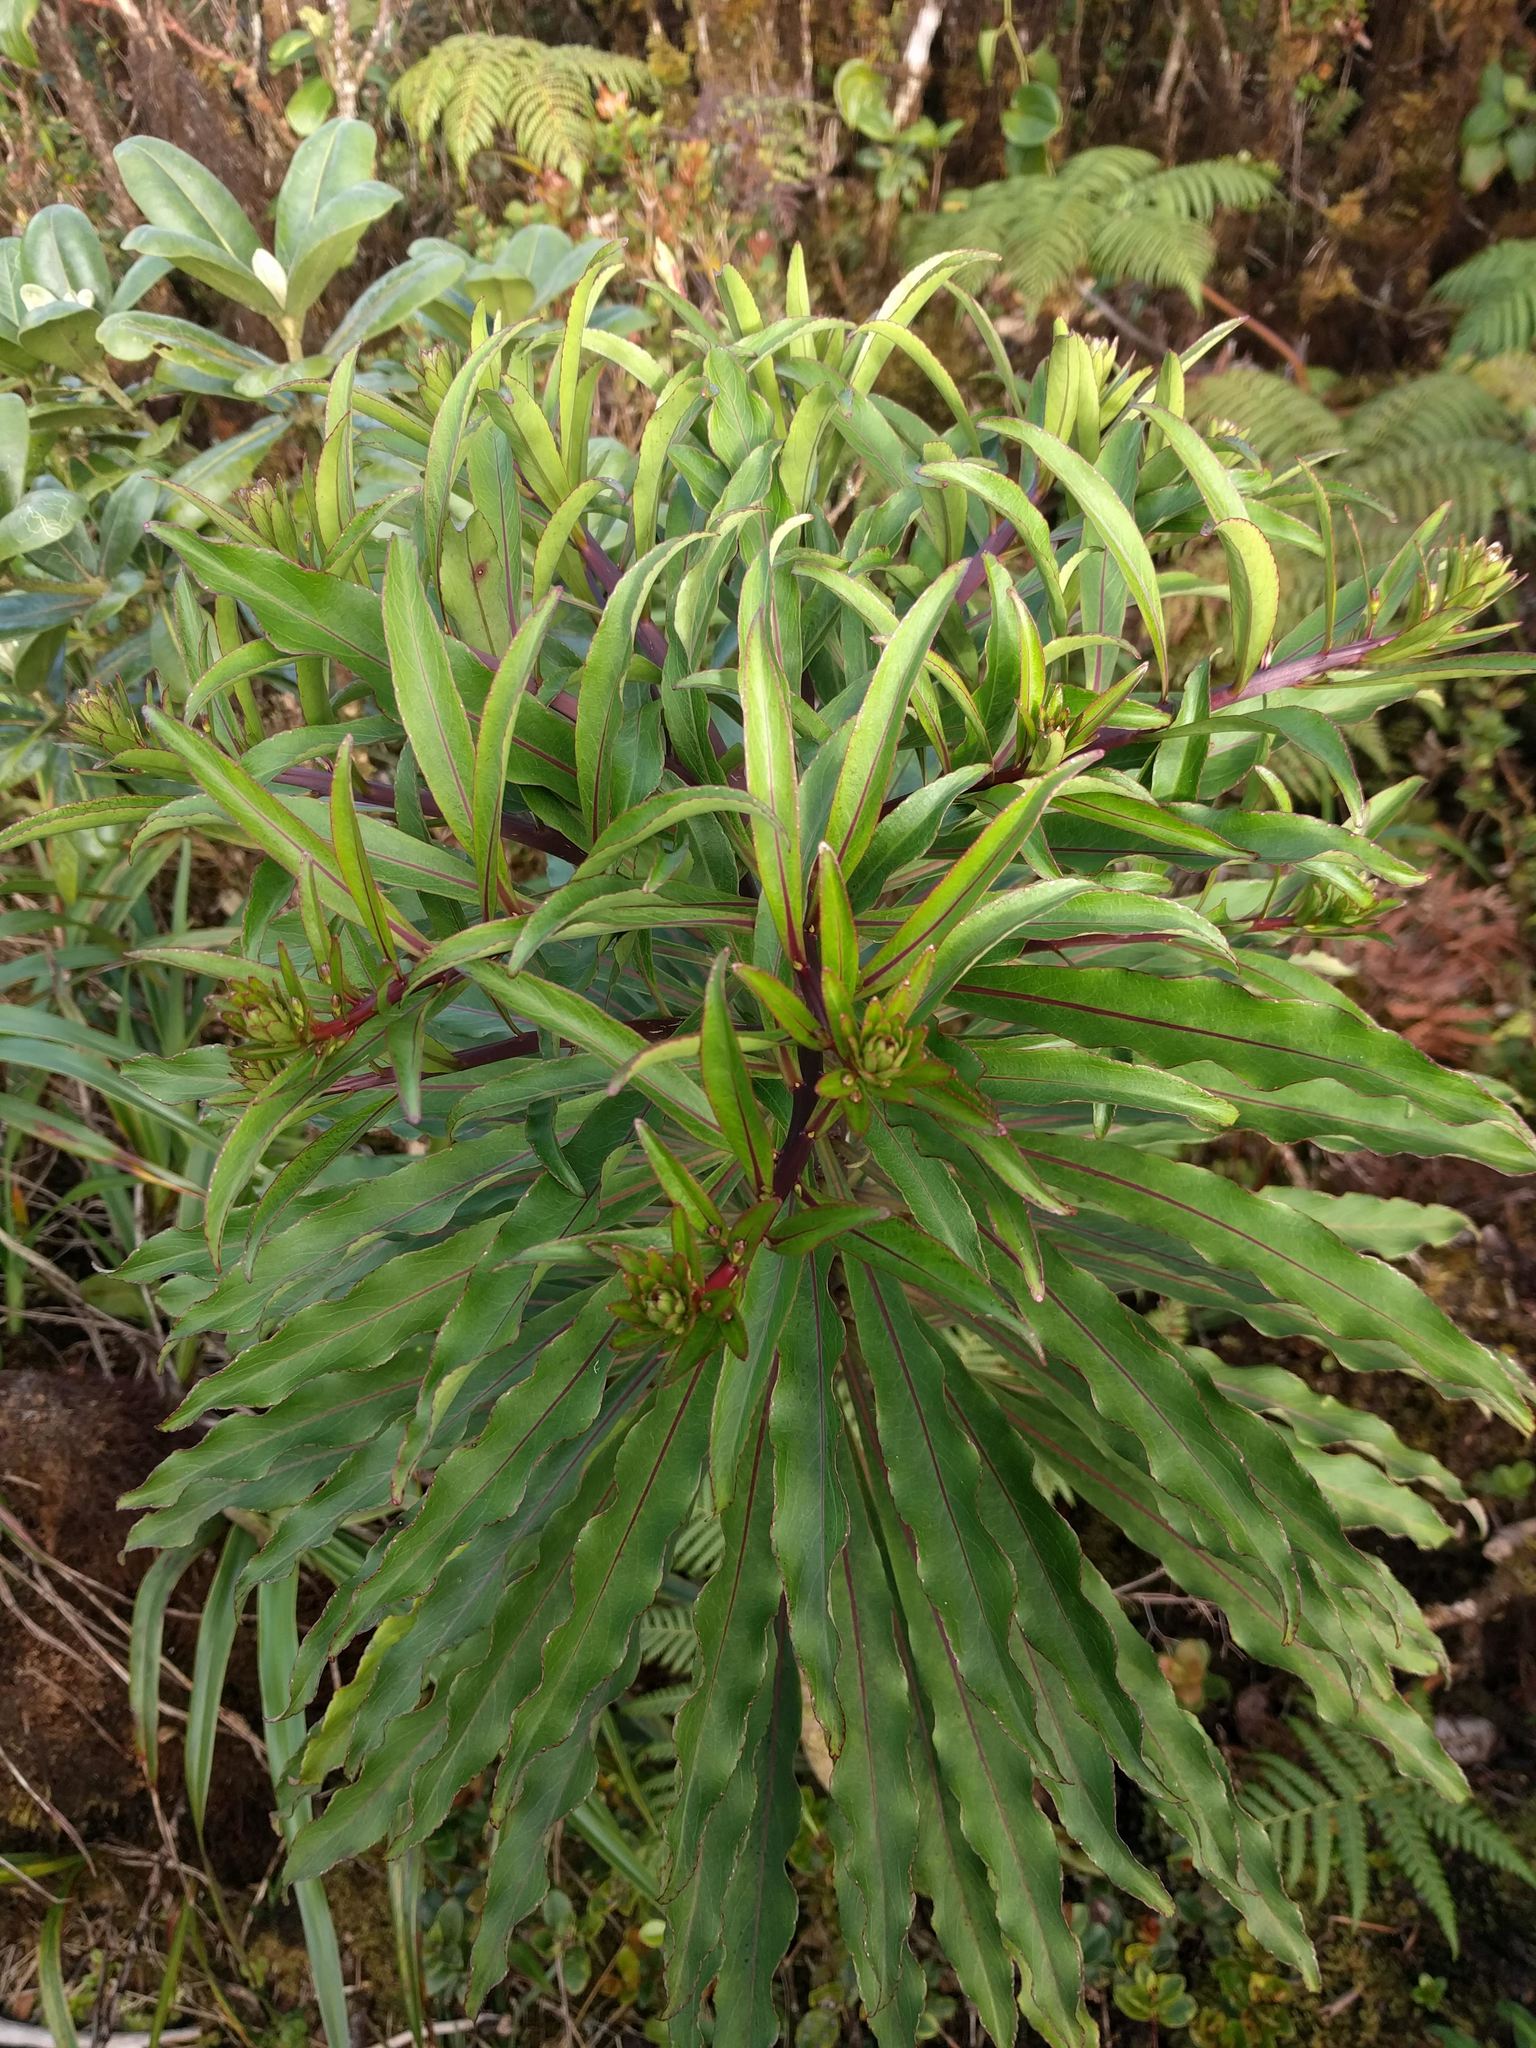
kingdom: Plantae
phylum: Tracheophyta
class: Magnoliopsida
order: Asterales
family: Campanulaceae
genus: Trematolobelia
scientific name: Trematolobelia kaalae
